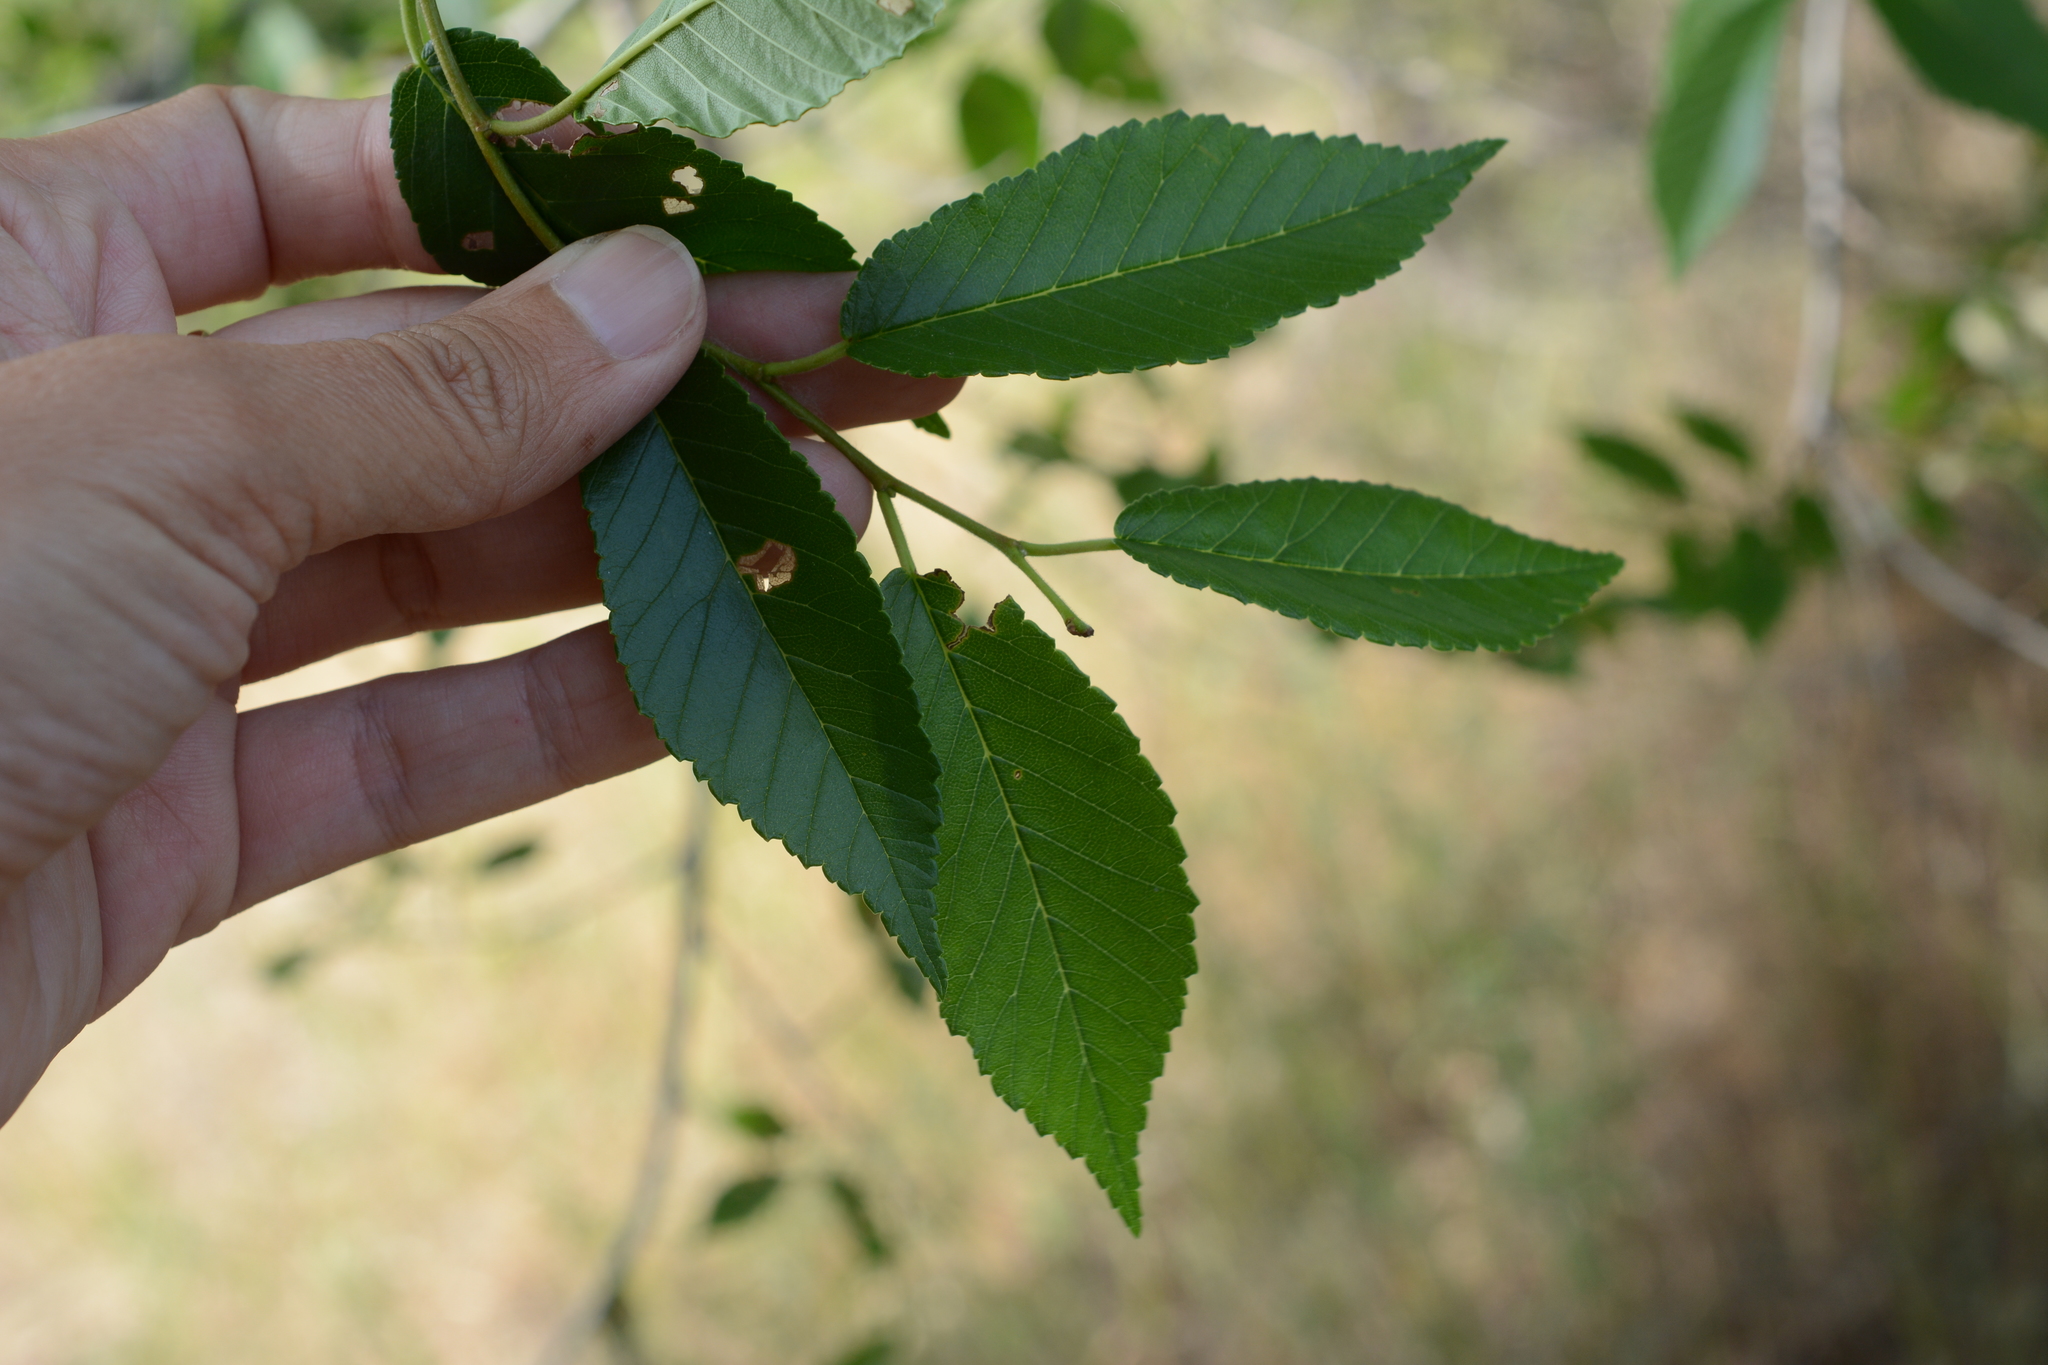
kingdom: Plantae
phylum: Tracheophyta
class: Magnoliopsida
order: Rosales
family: Ulmaceae
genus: Ulmus
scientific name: Ulmus pumila
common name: Siberian elm
